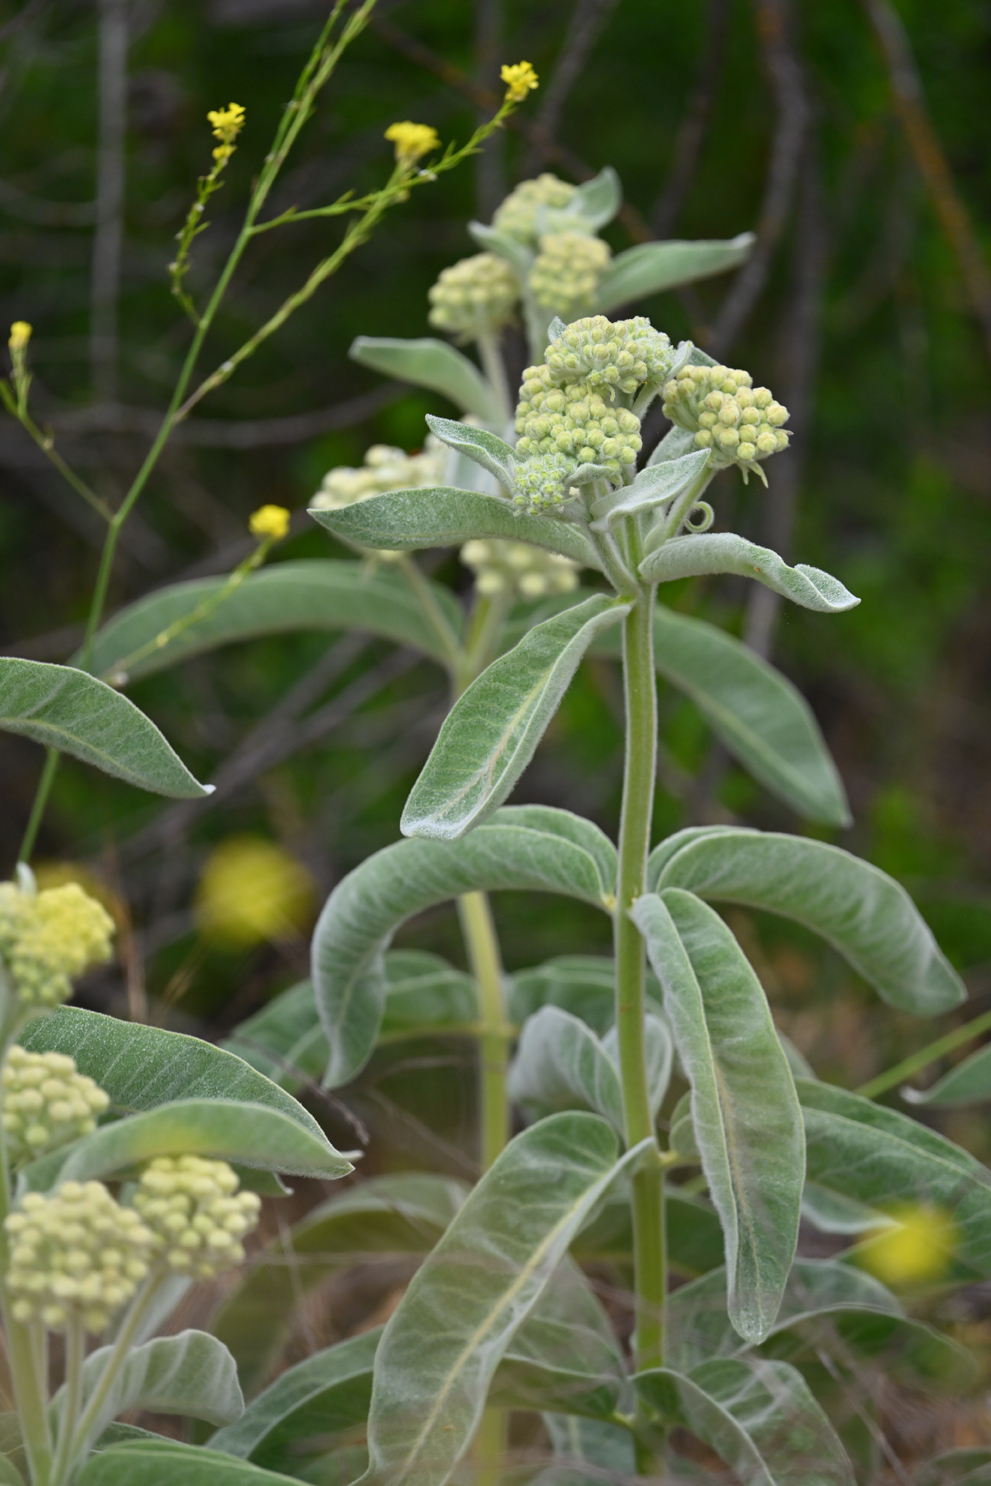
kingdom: Plantae
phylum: Tracheophyta
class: Magnoliopsida
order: Gentianales
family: Apocynaceae
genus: Asclepias
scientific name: Asclepias eriocarpa
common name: Indian milkweed
